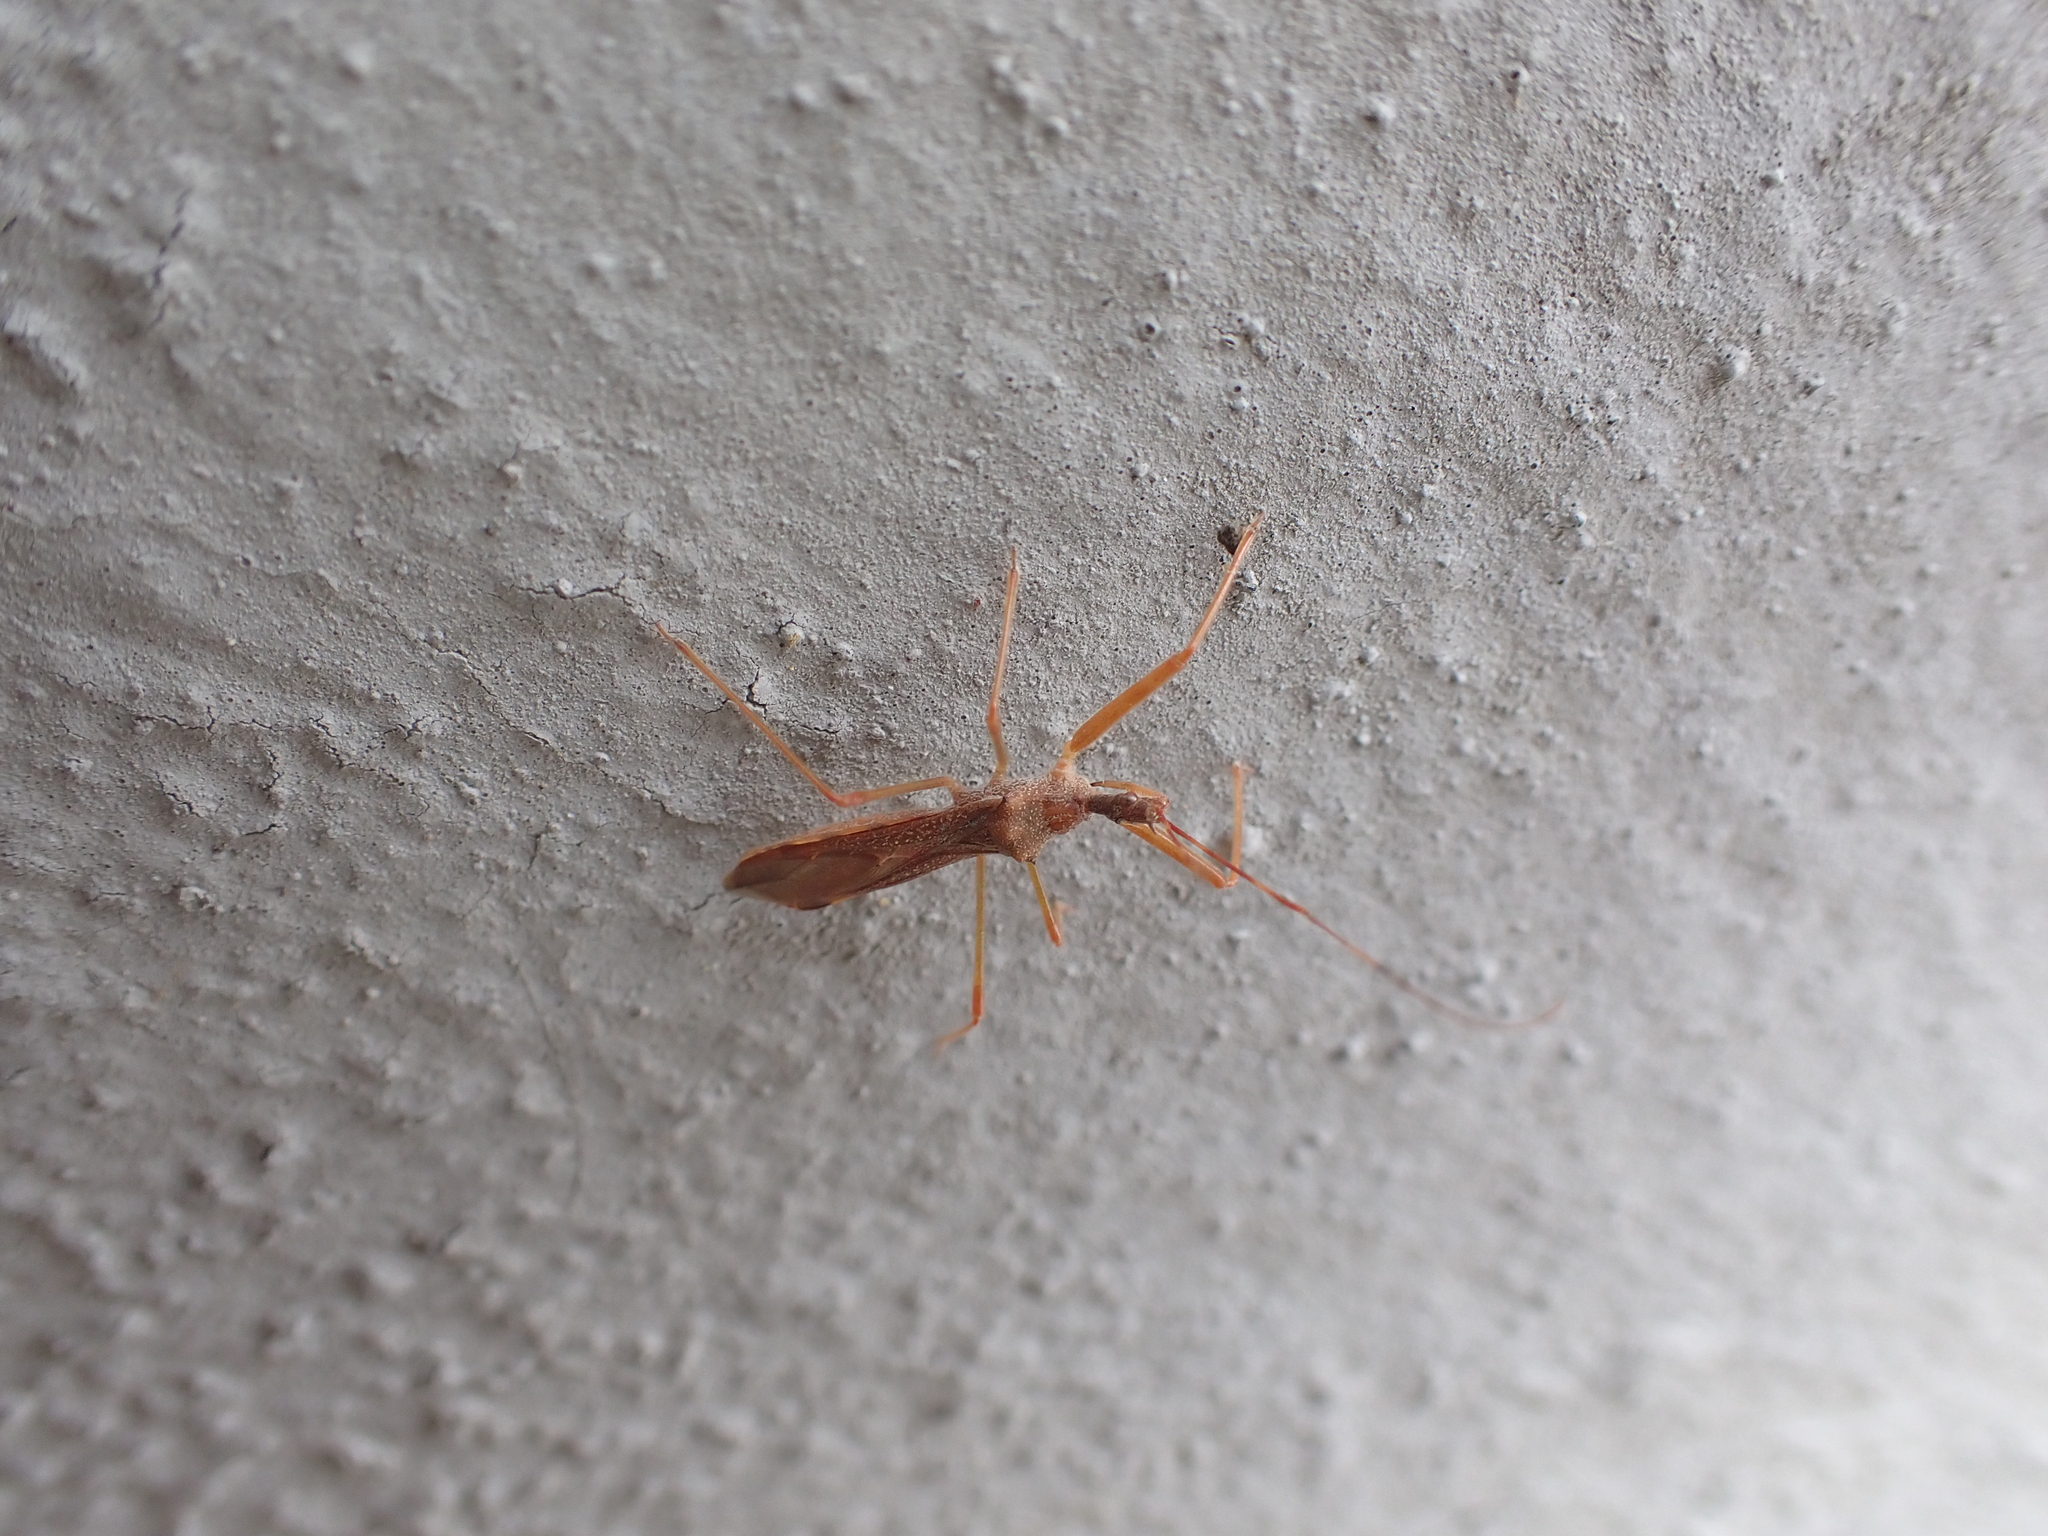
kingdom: Animalia
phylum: Arthropoda
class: Insecta
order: Hemiptera
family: Reduviidae
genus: Nagusta
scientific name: Nagusta goedelii
